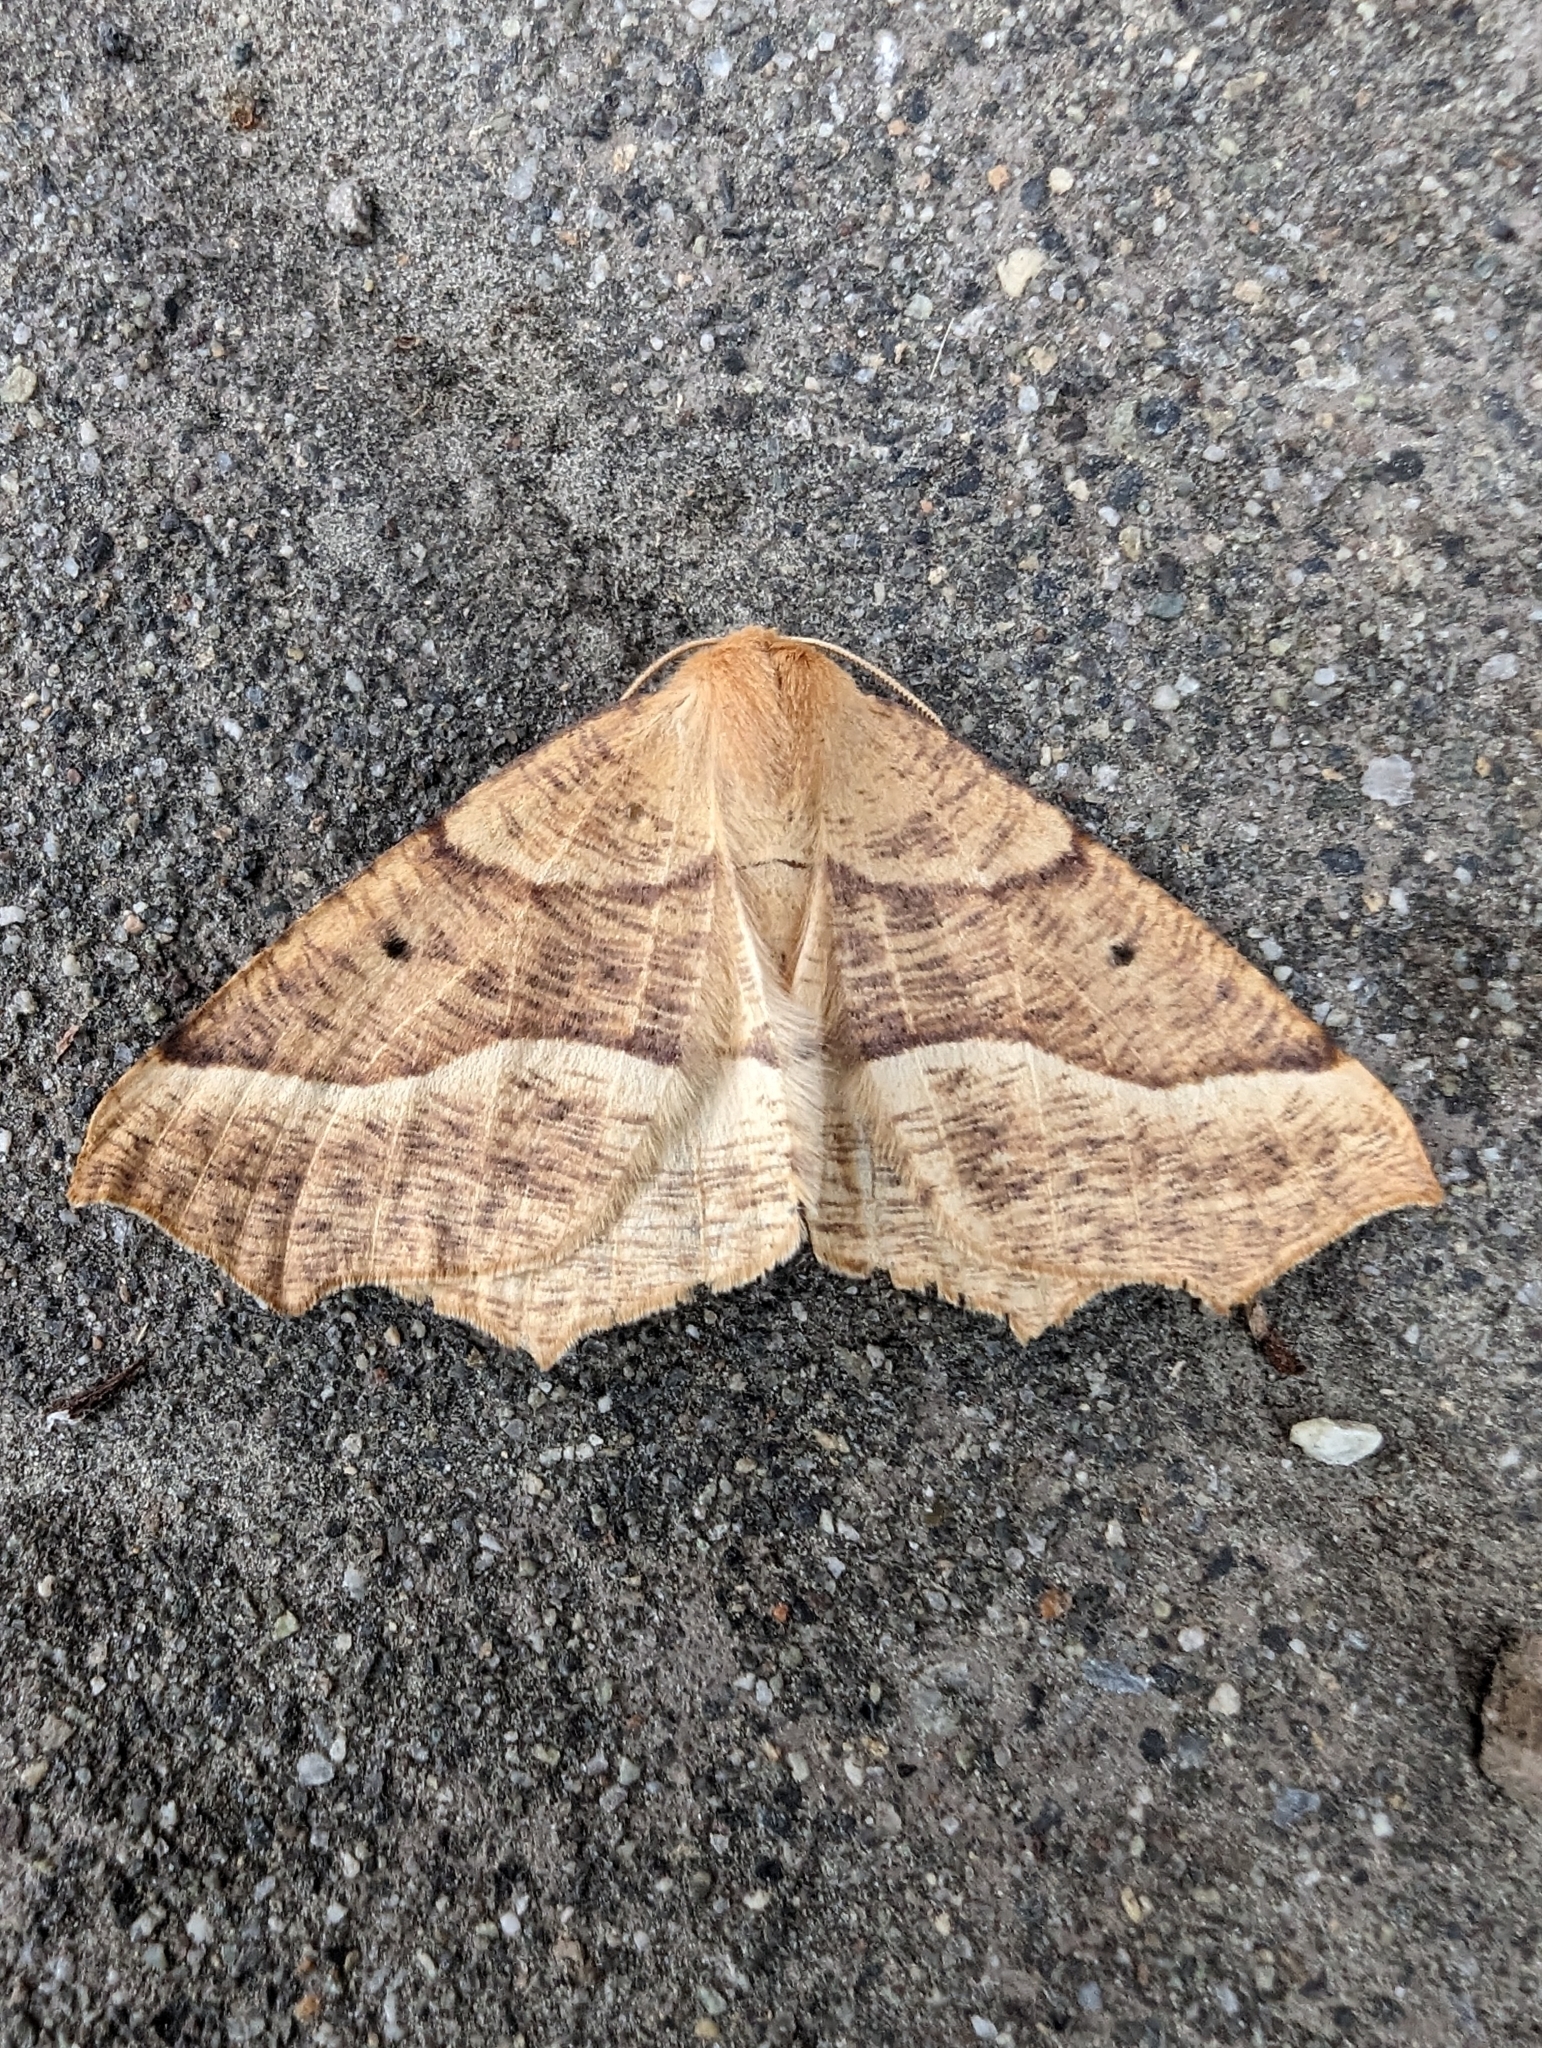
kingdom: Animalia
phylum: Arthropoda
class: Insecta
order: Lepidoptera
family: Geometridae
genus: Synaxis
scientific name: Synaxis jubararia
